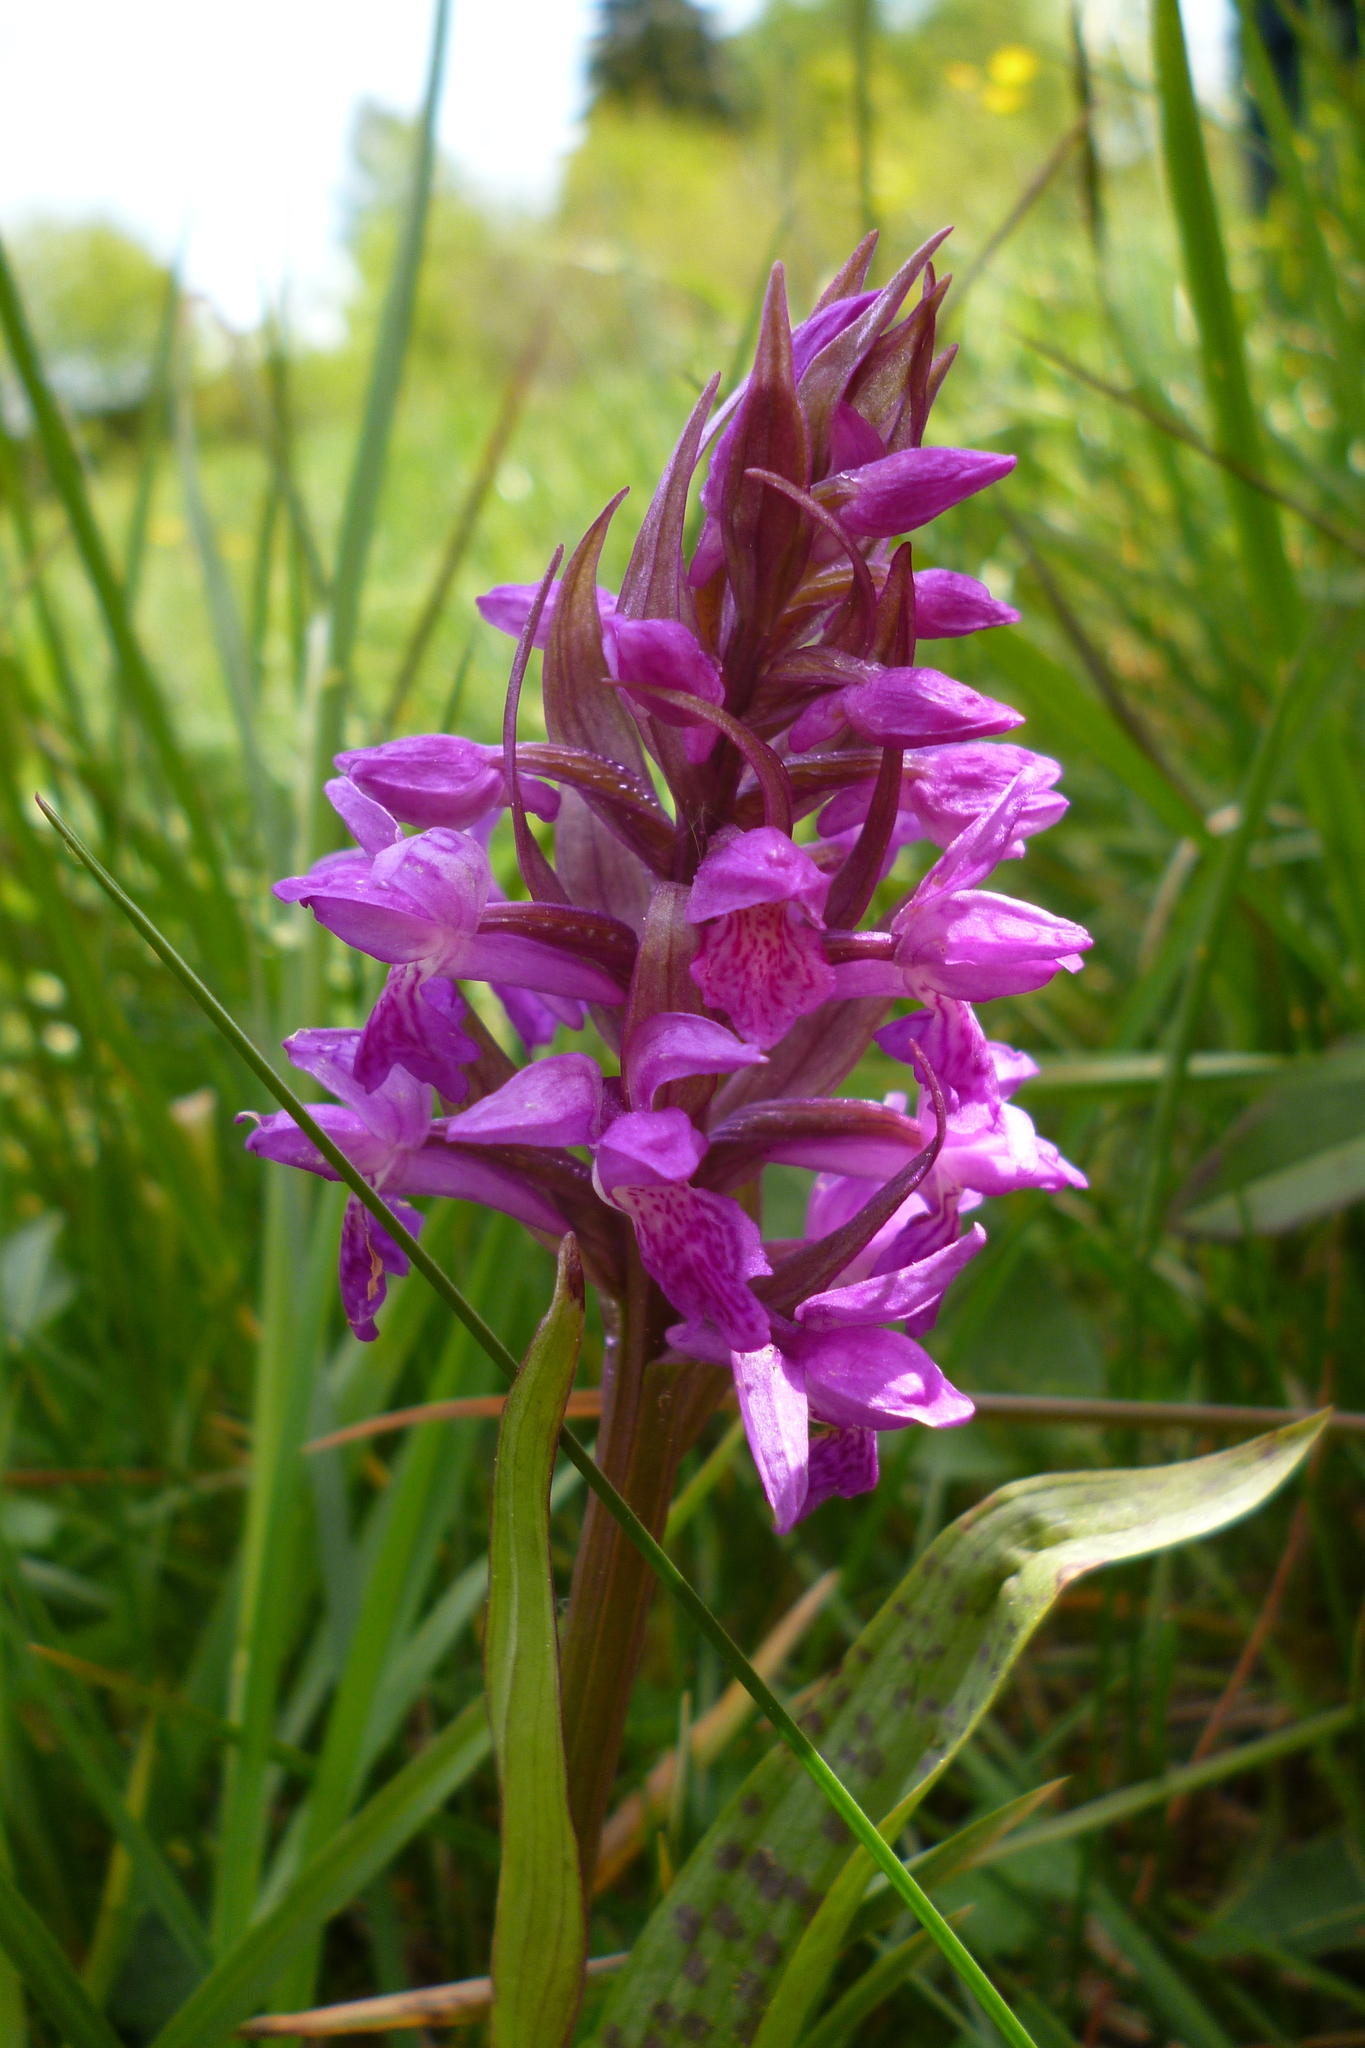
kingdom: Plantae
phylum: Tracheophyta
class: Liliopsida
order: Asparagales
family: Orchidaceae
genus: Dactylorhiza
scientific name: Dactylorhiza majalis
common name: Marsh orchid
